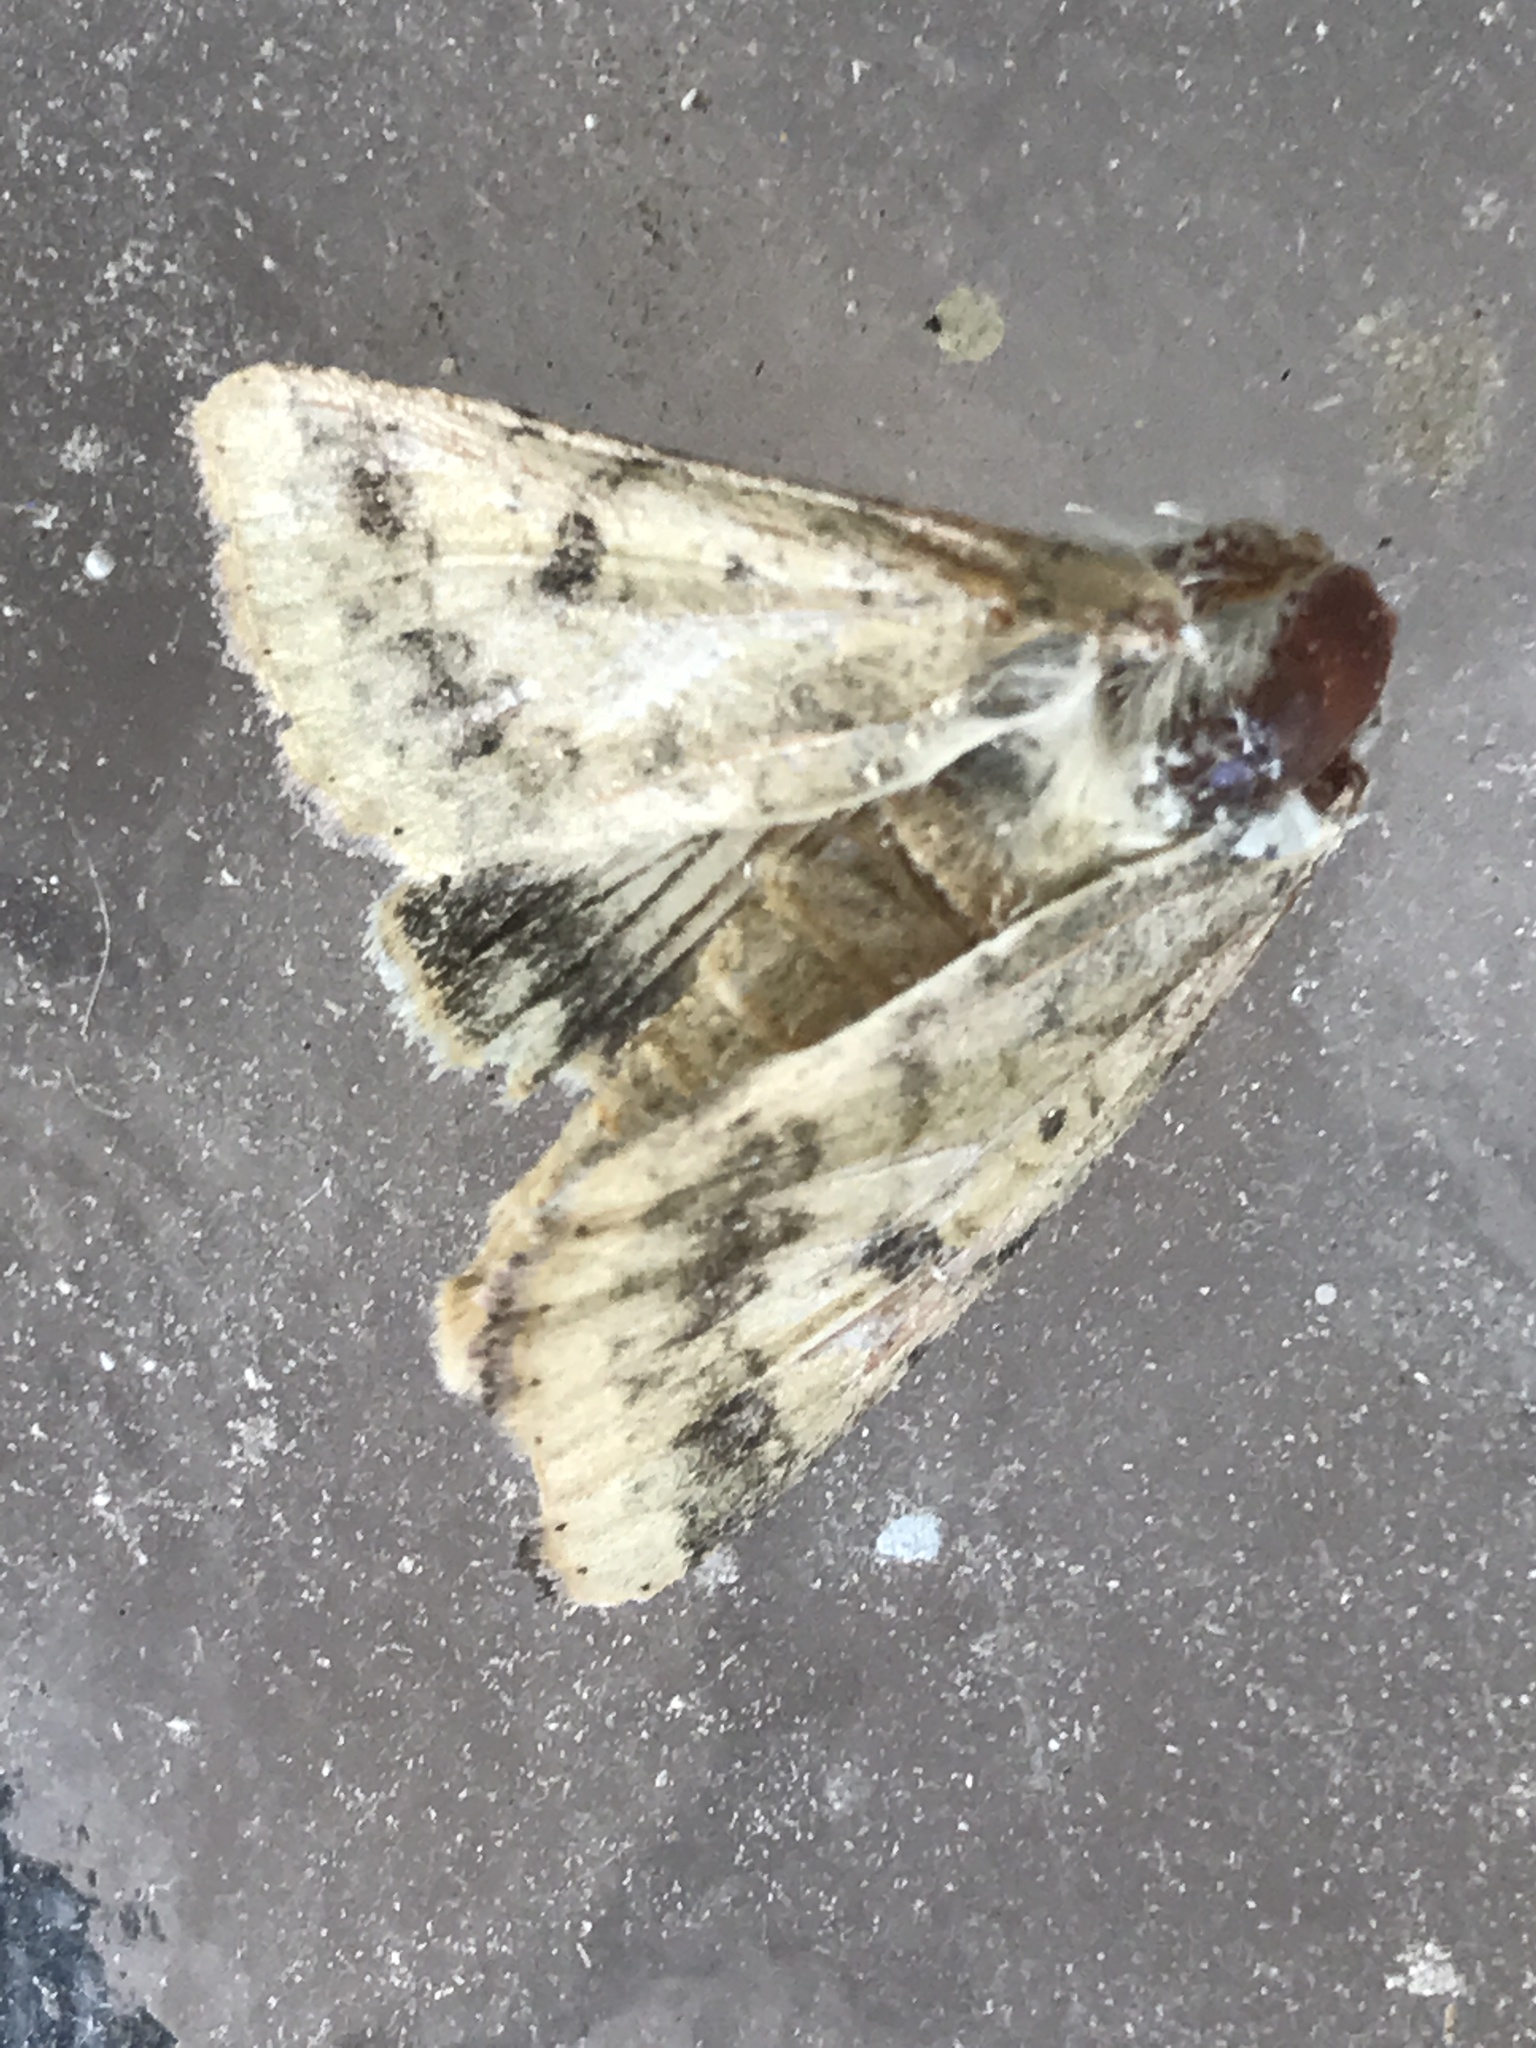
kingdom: Animalia
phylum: Arthropoda
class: Insecta
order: Lepidoptera
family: Noctuidae
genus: Helicoverpa
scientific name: Helicoverpa zea
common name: Bollworm
